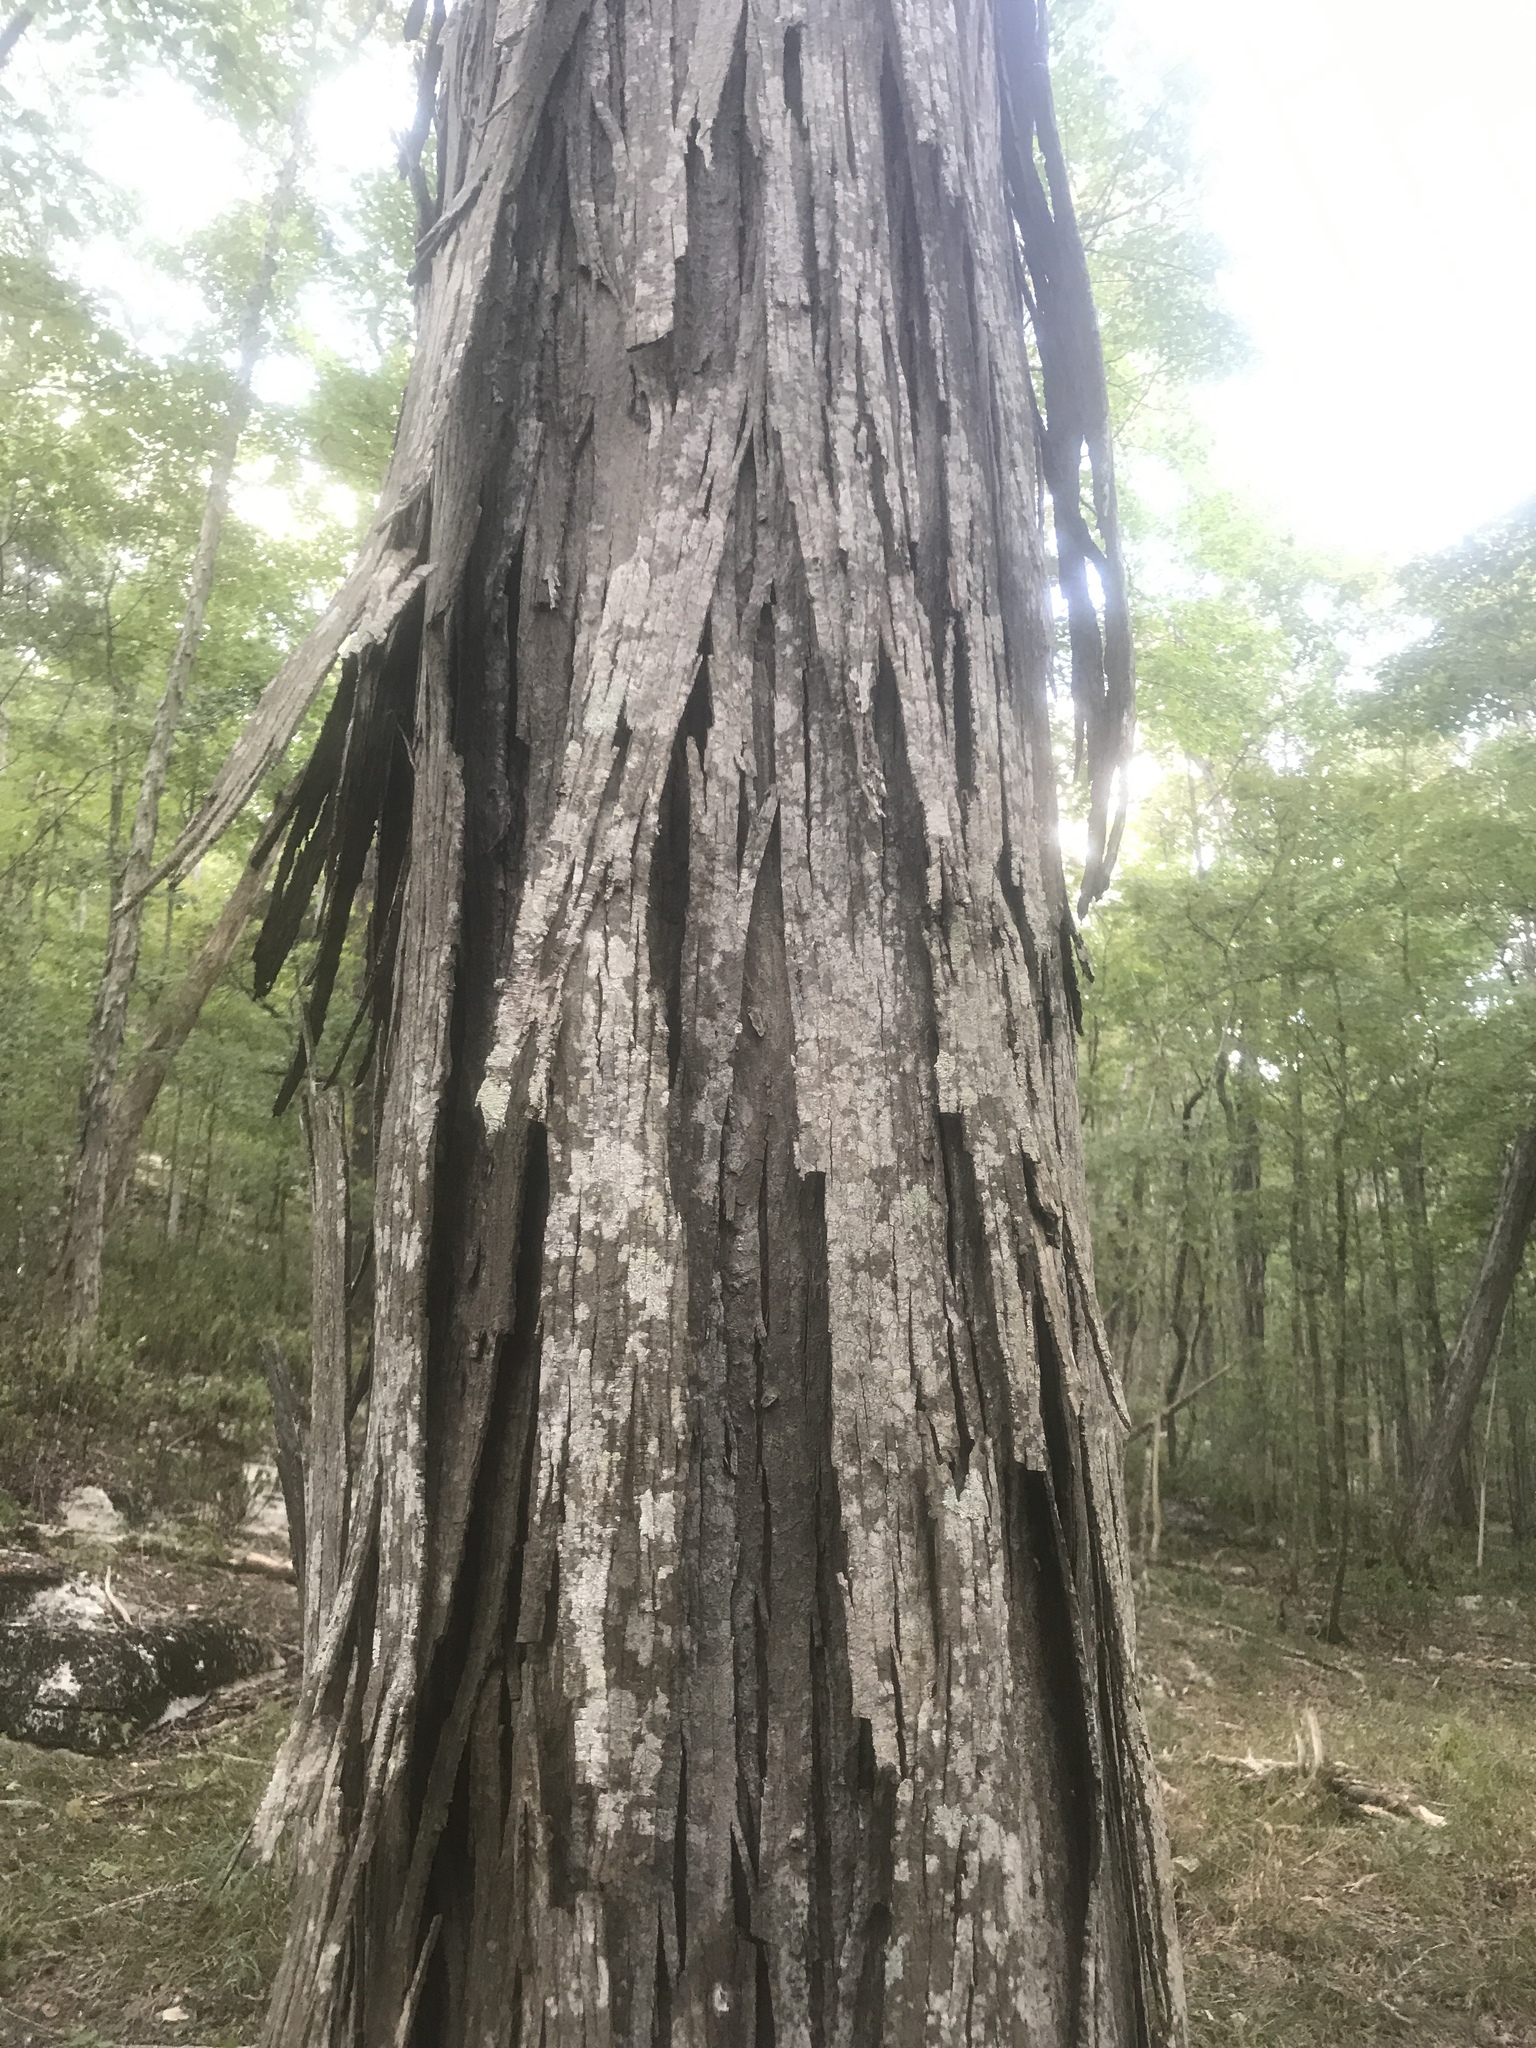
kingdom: Plantae
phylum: Tracheophyta
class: Magnoliopsida
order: Fagales
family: Juglandaceae
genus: Carya
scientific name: Carya carolinae-septentrionalis
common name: Carolina hickory
